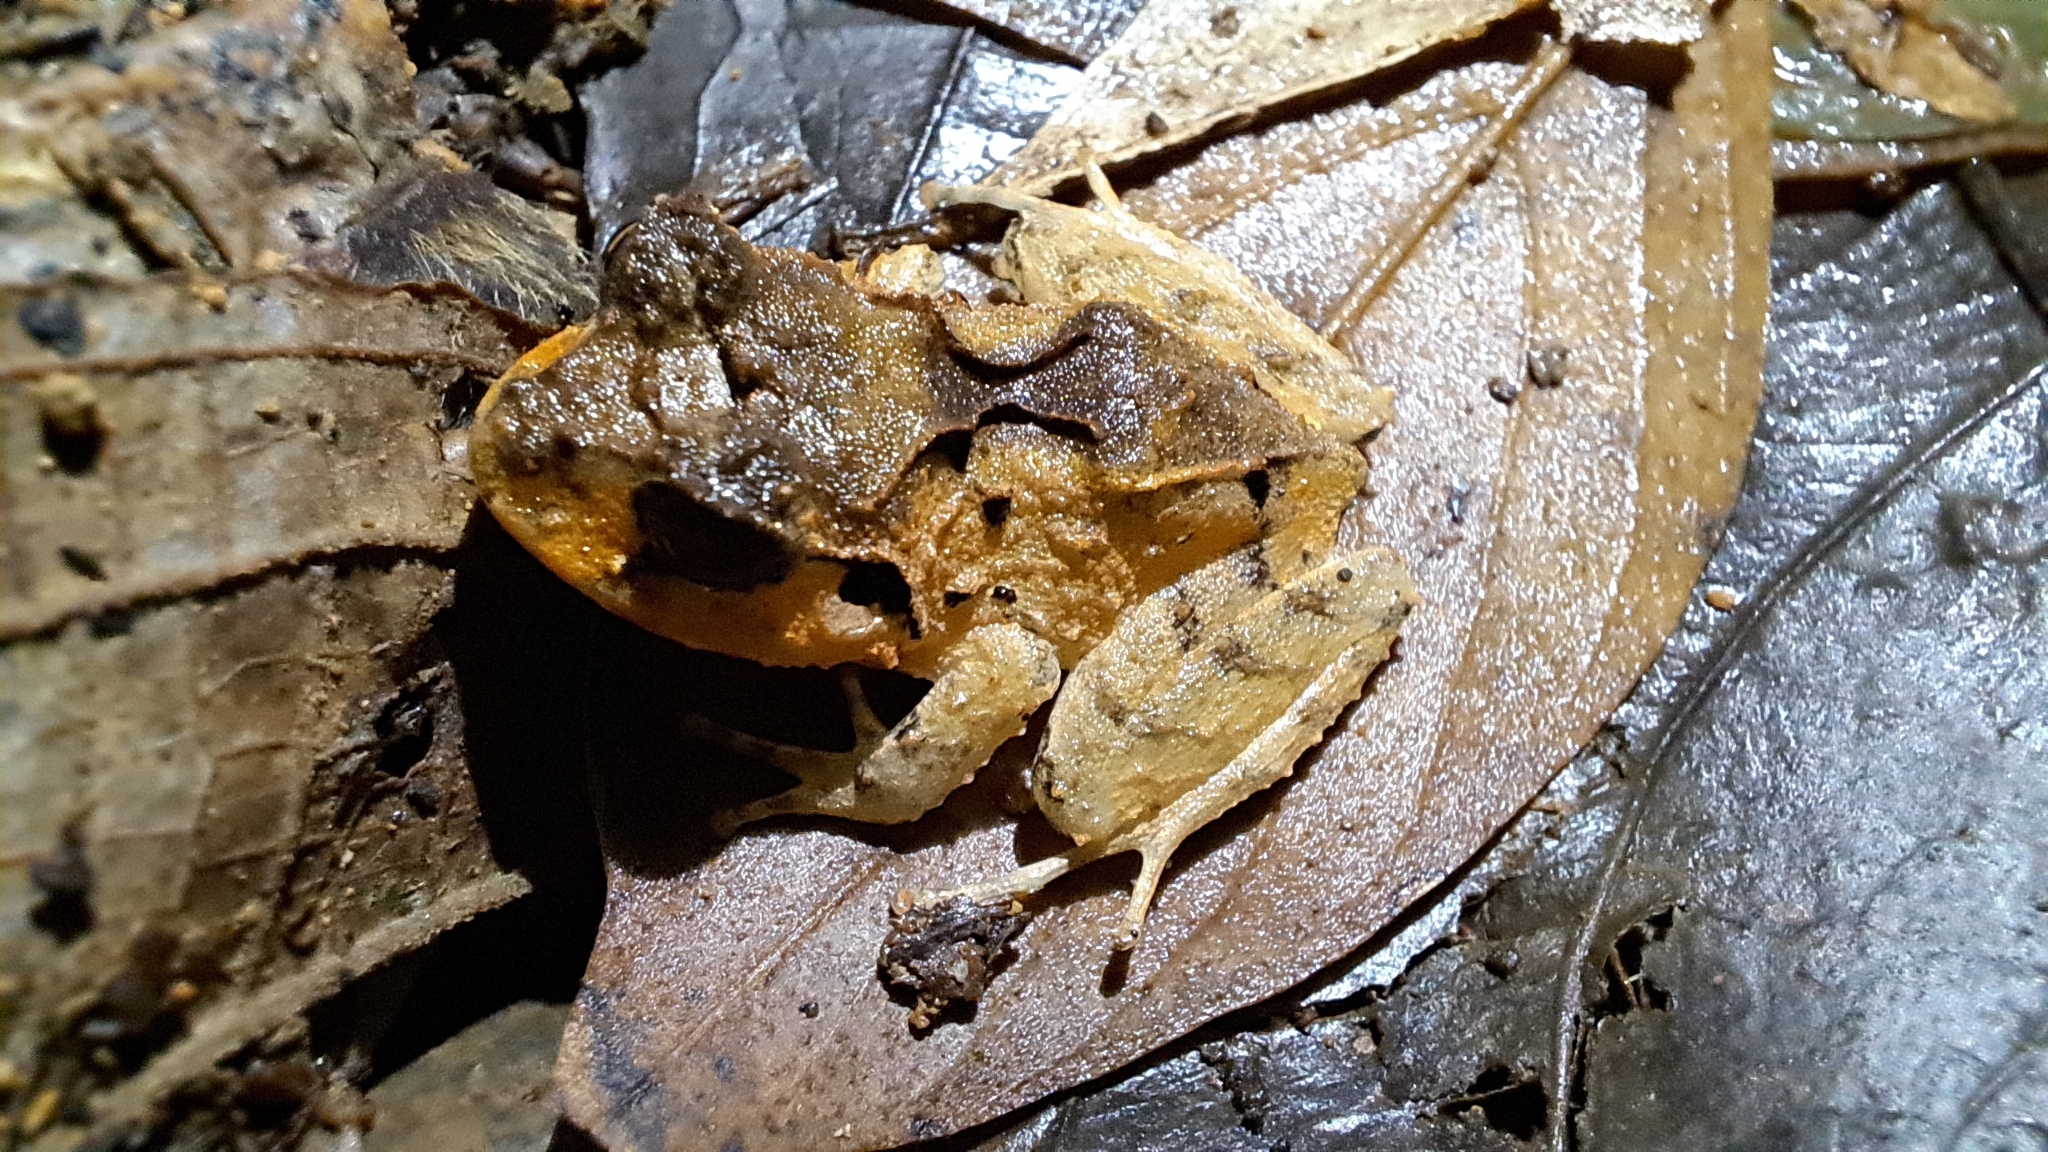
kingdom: Animalia
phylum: Chordata
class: Amphibia
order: Anura
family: Craugastoridae
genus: Craugastor
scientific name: Craugastor megacephalus
